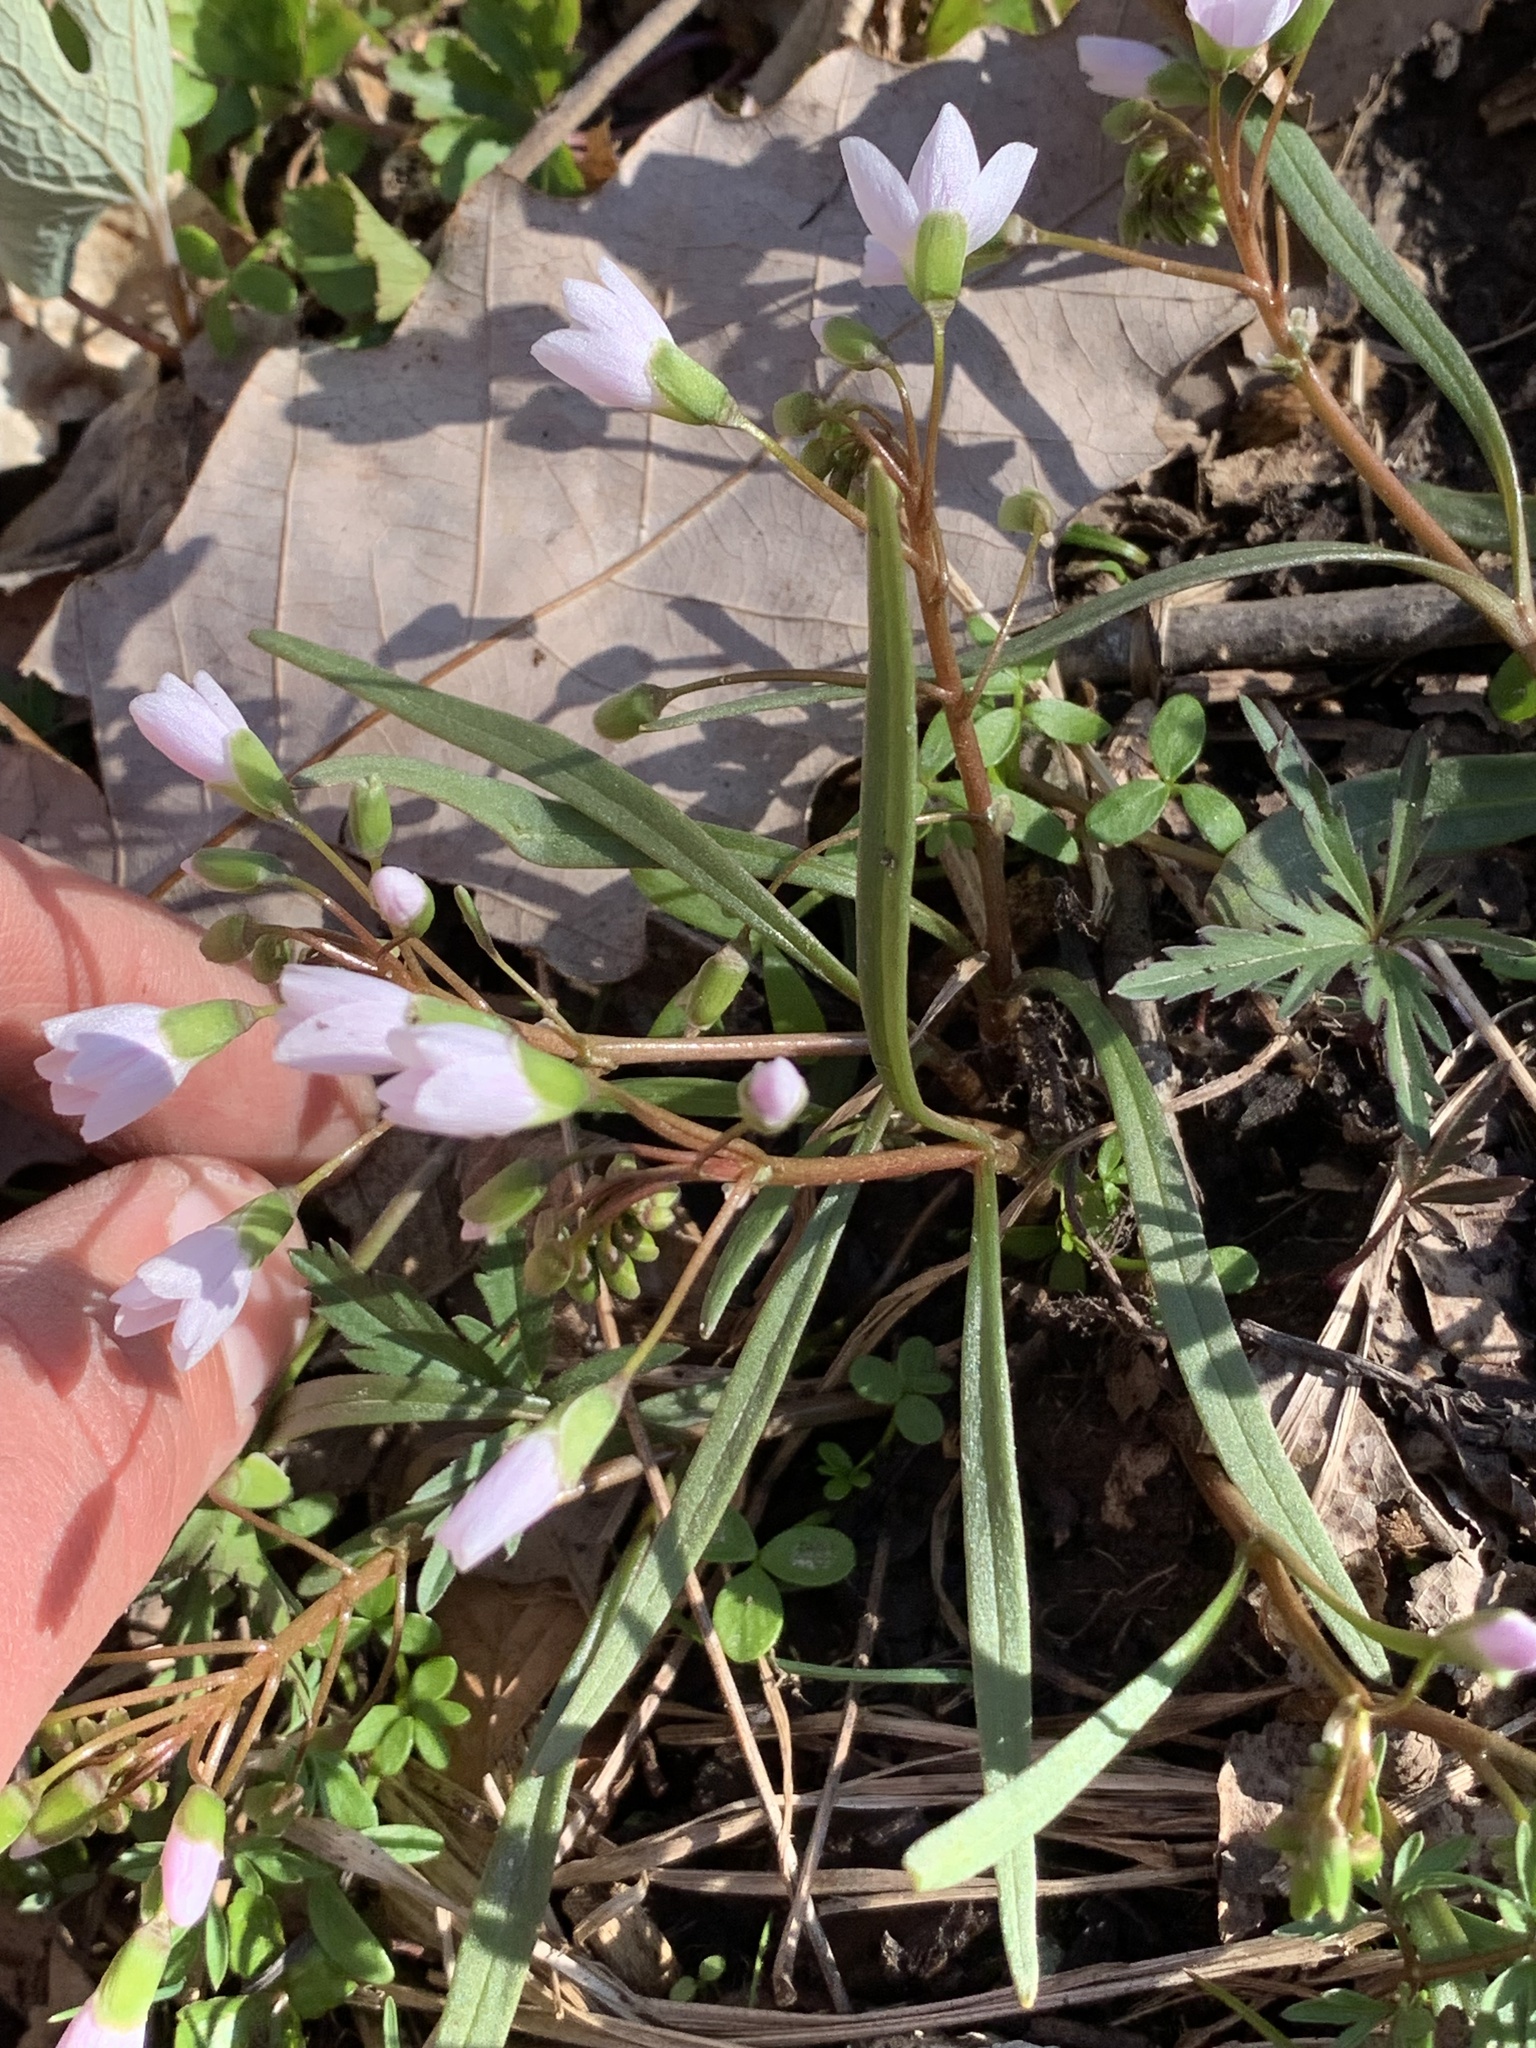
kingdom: Plantae
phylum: Tracheophyta
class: Magnoliopsida
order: Caryophyllales
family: Montiaceae
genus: Claytonia
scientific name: Claytonia virginica
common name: Virginia springbeauty
